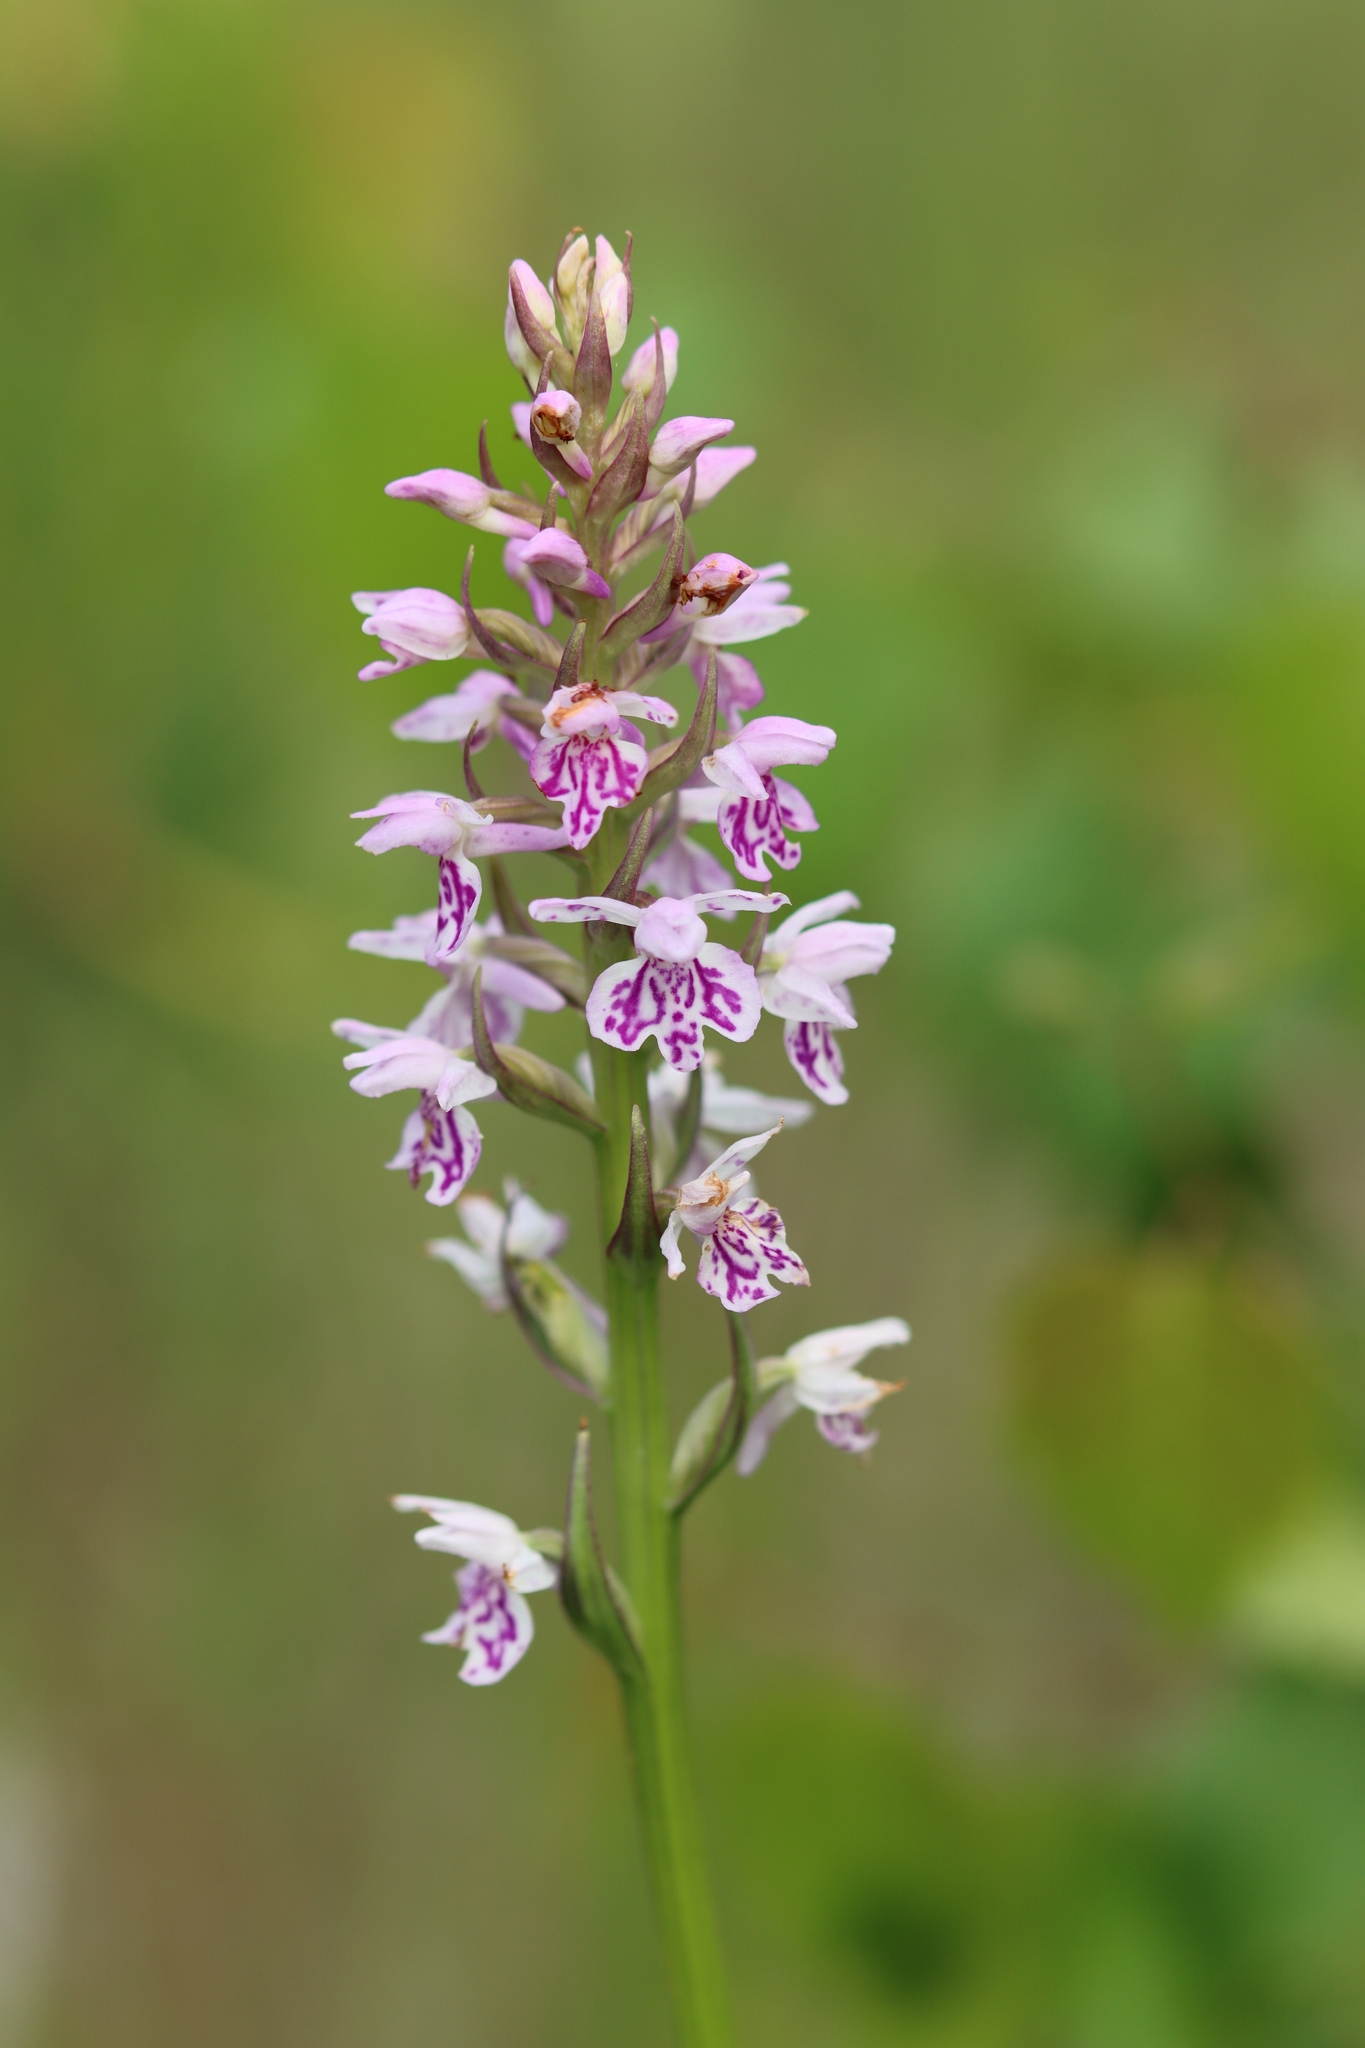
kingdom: Plantae
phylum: Tracheophyta
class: Liliopsida
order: Asparagales
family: Orchidaceae
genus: Dactylorhiza
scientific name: Dactylorhiza maculata
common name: Heath spotted-orchid
